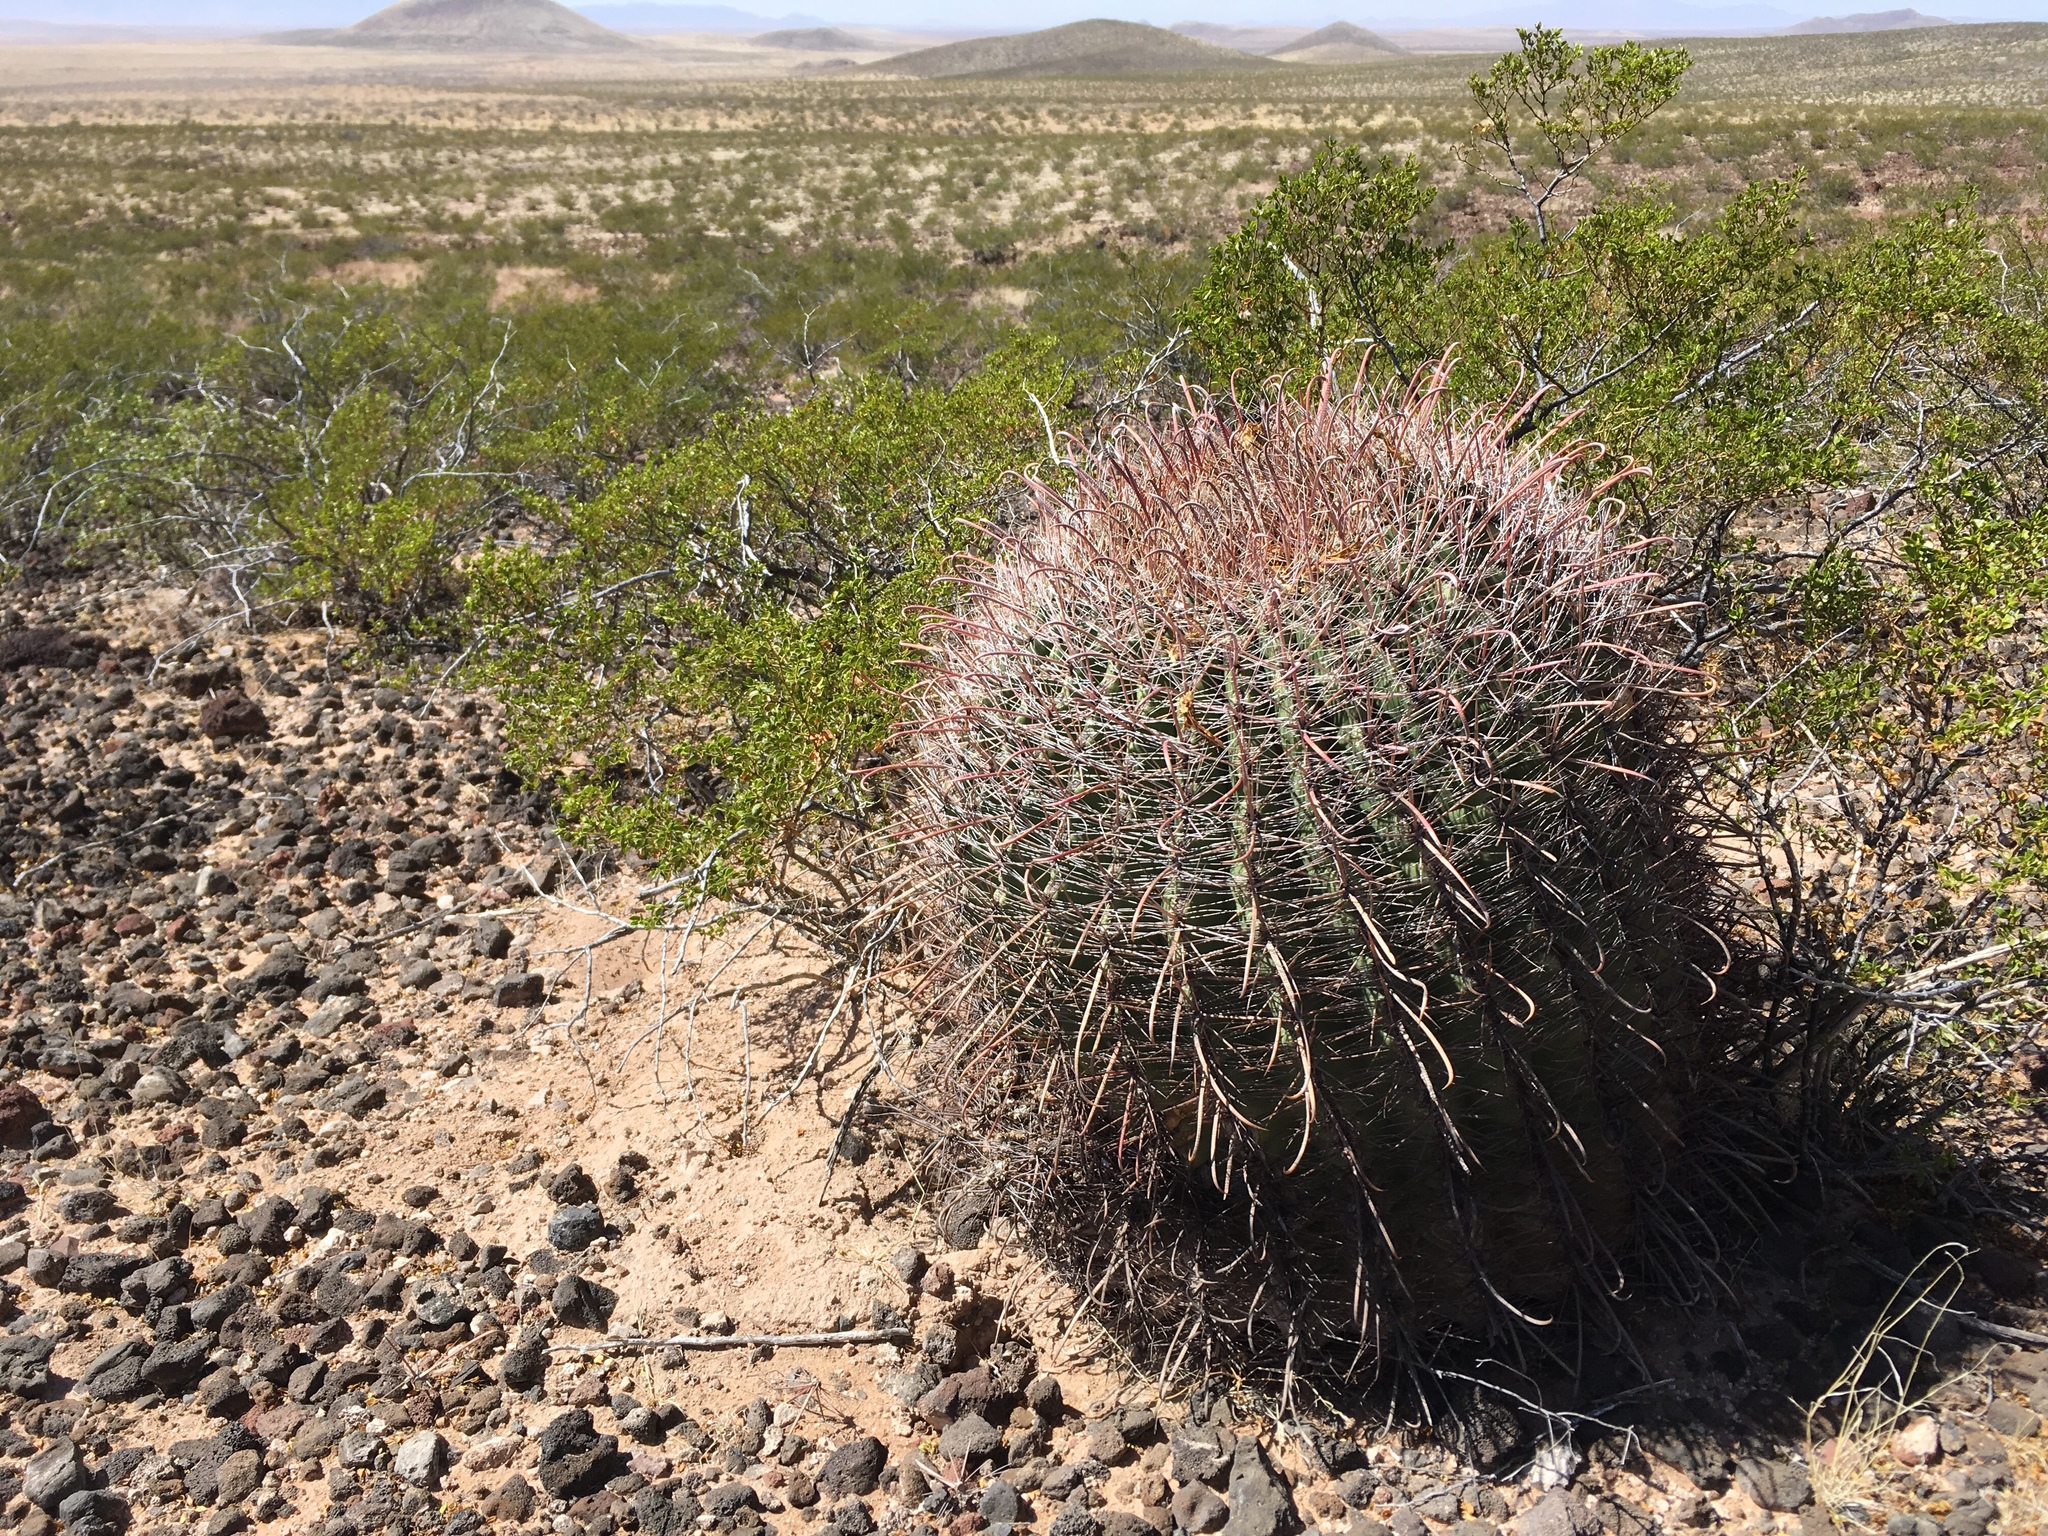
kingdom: Plantae
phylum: Tracheophyta
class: Magnoliopsida
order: Caryophyllales
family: Cactaceae
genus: Ferocactus
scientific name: Ferocactus wislizeni
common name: Candy barrel cactus
